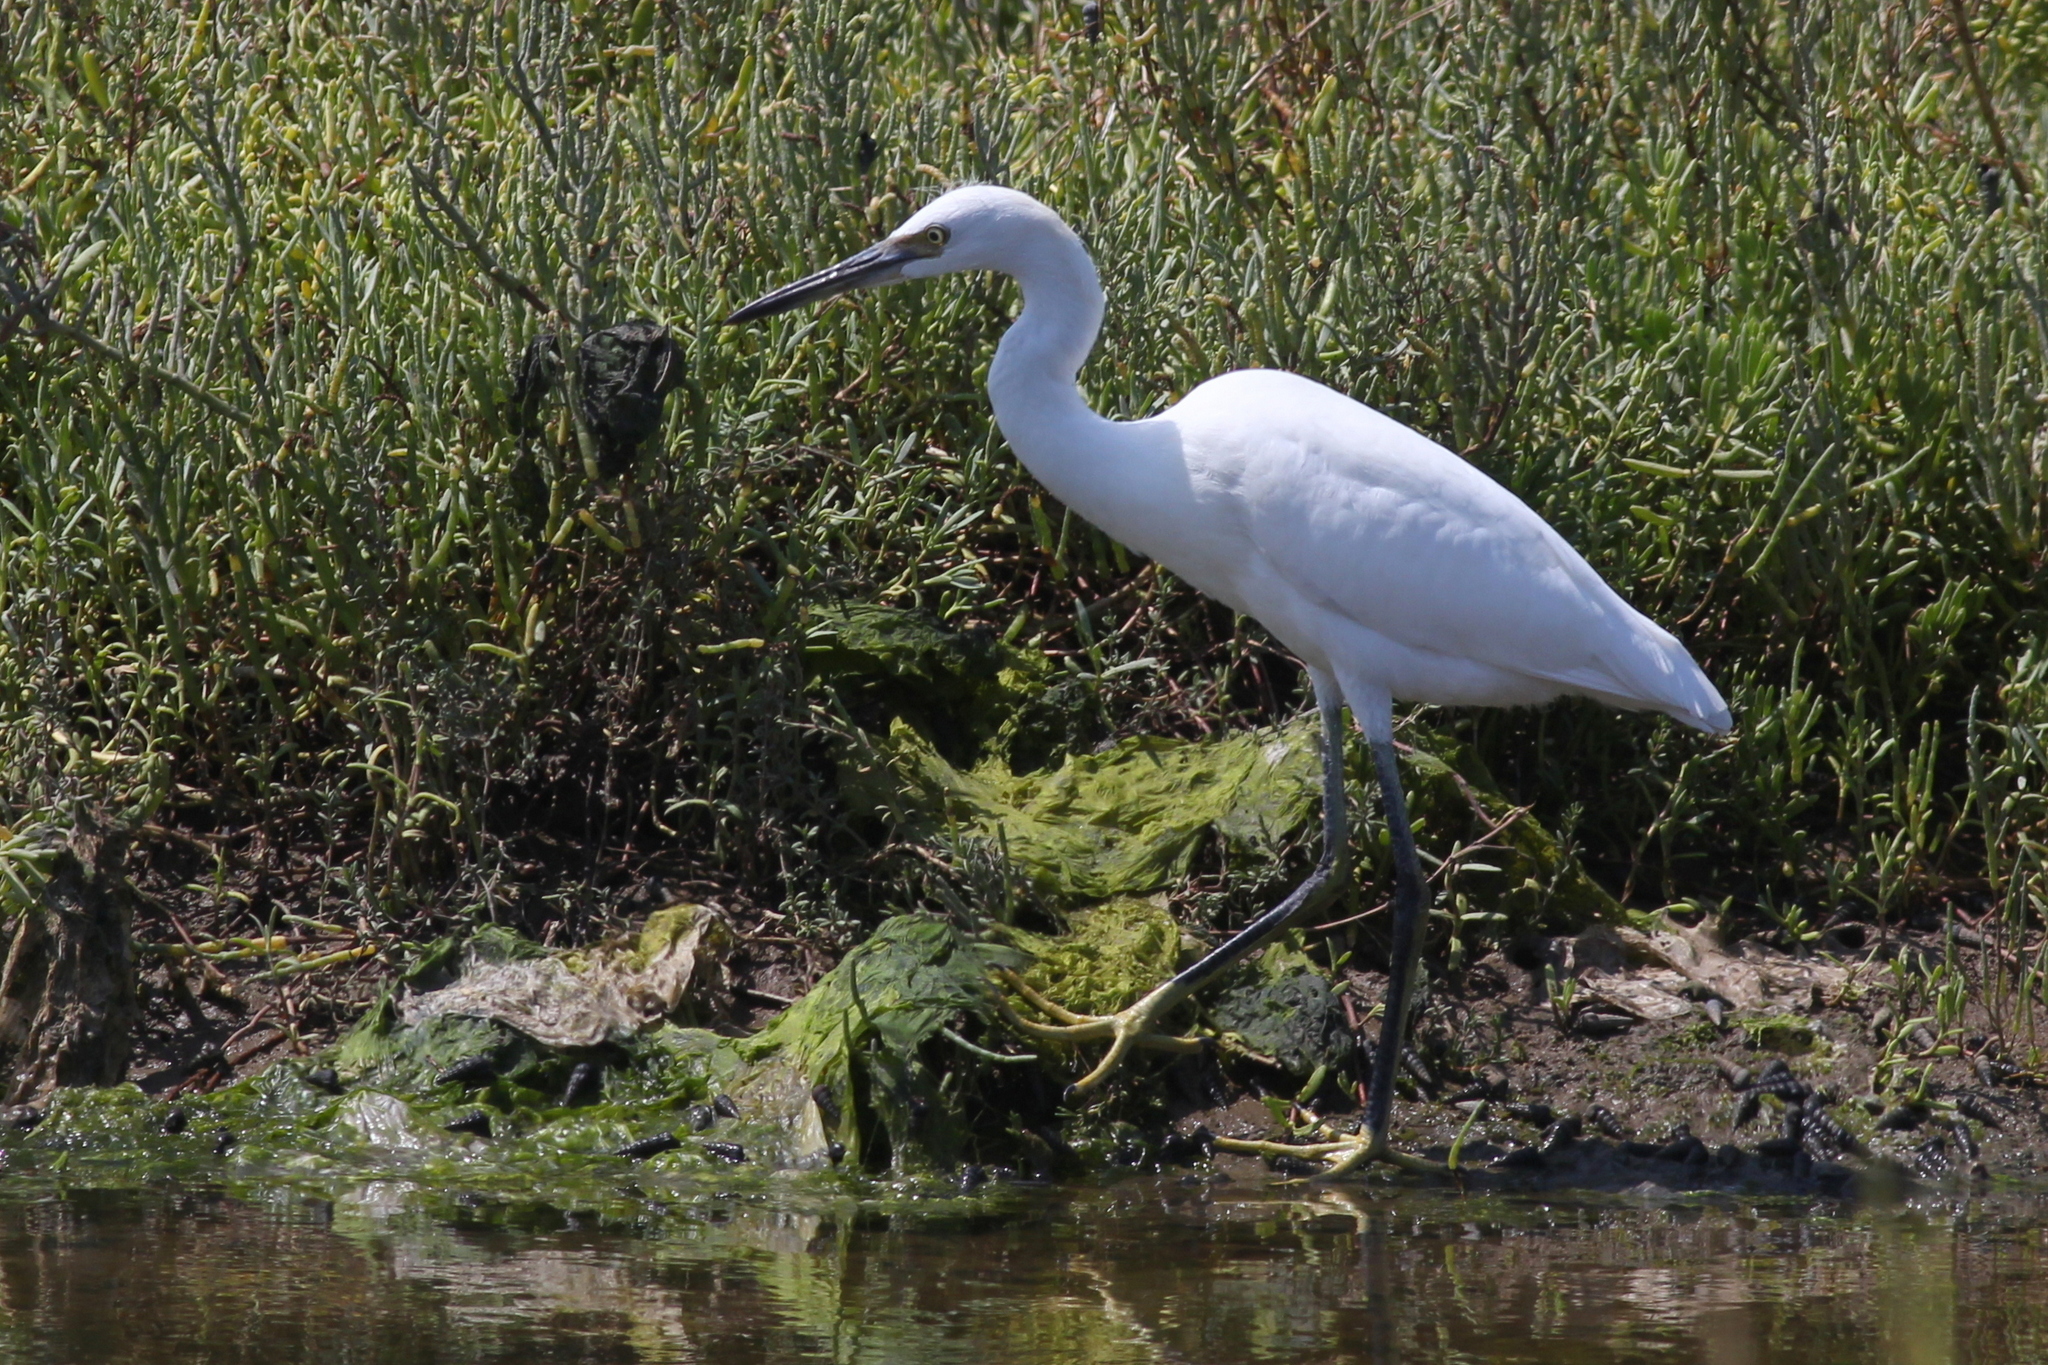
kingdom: Animalia
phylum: Chordata
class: Aves
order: Pelecaniformes
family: Ardeidae
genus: Egretta
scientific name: Egretta thula
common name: Snowy egret
